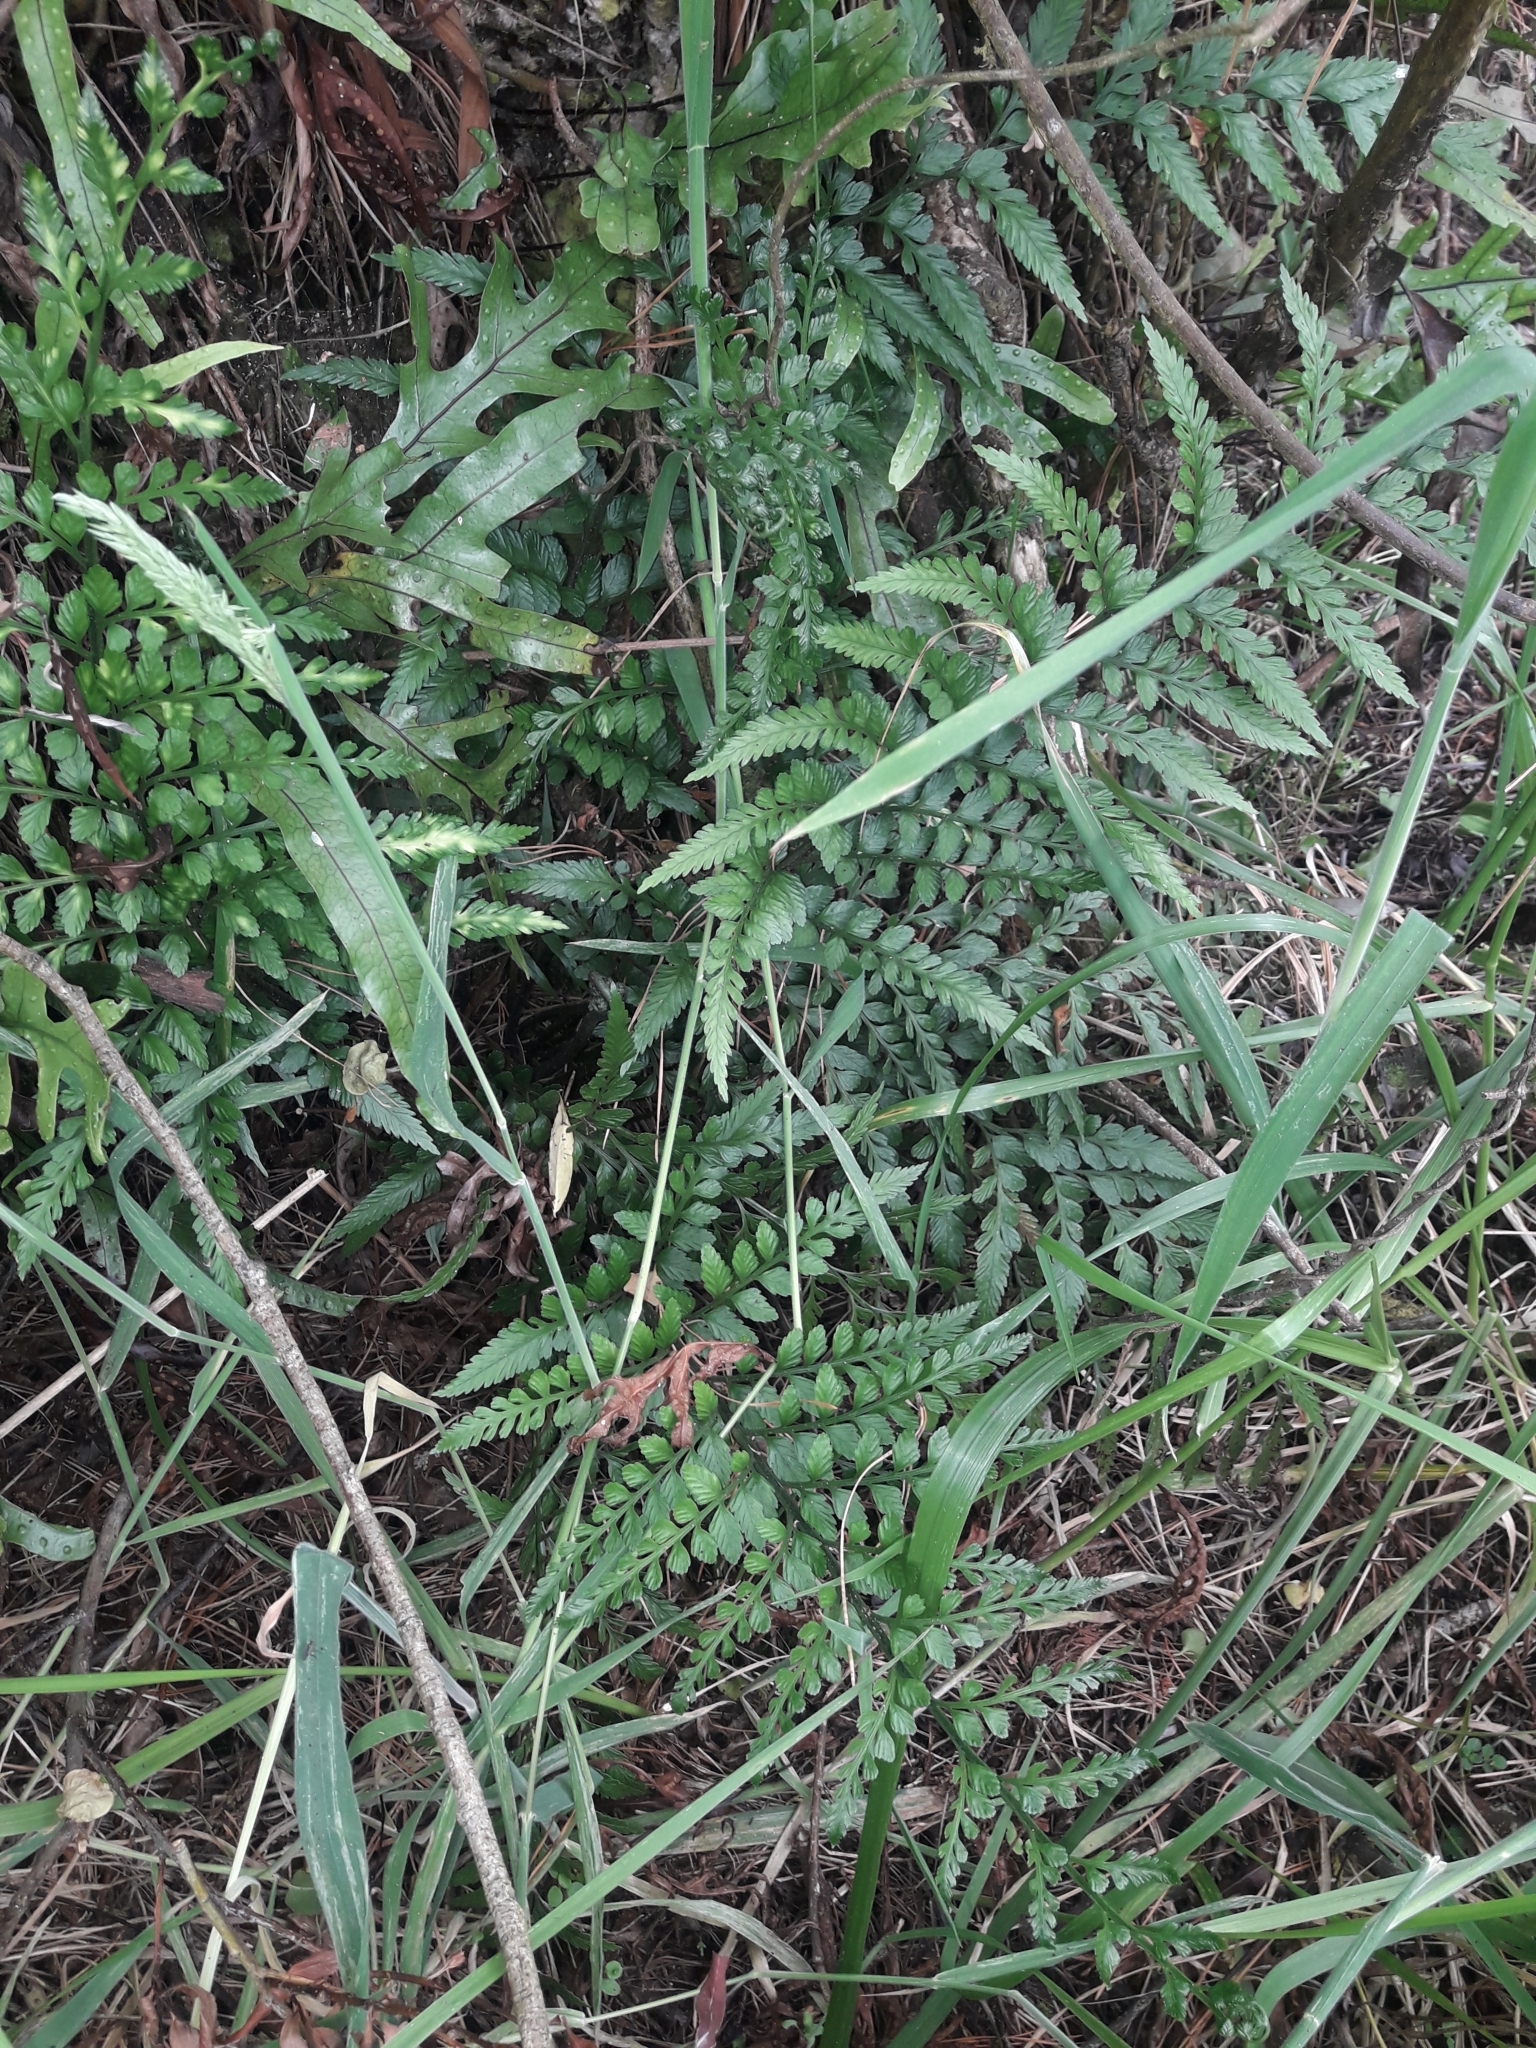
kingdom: Plantae
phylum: Tracheophyta
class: Polypodiopsida
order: Polypodiales
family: Aspleniaceae
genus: Asplenium
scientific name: Asplenium lyallii
